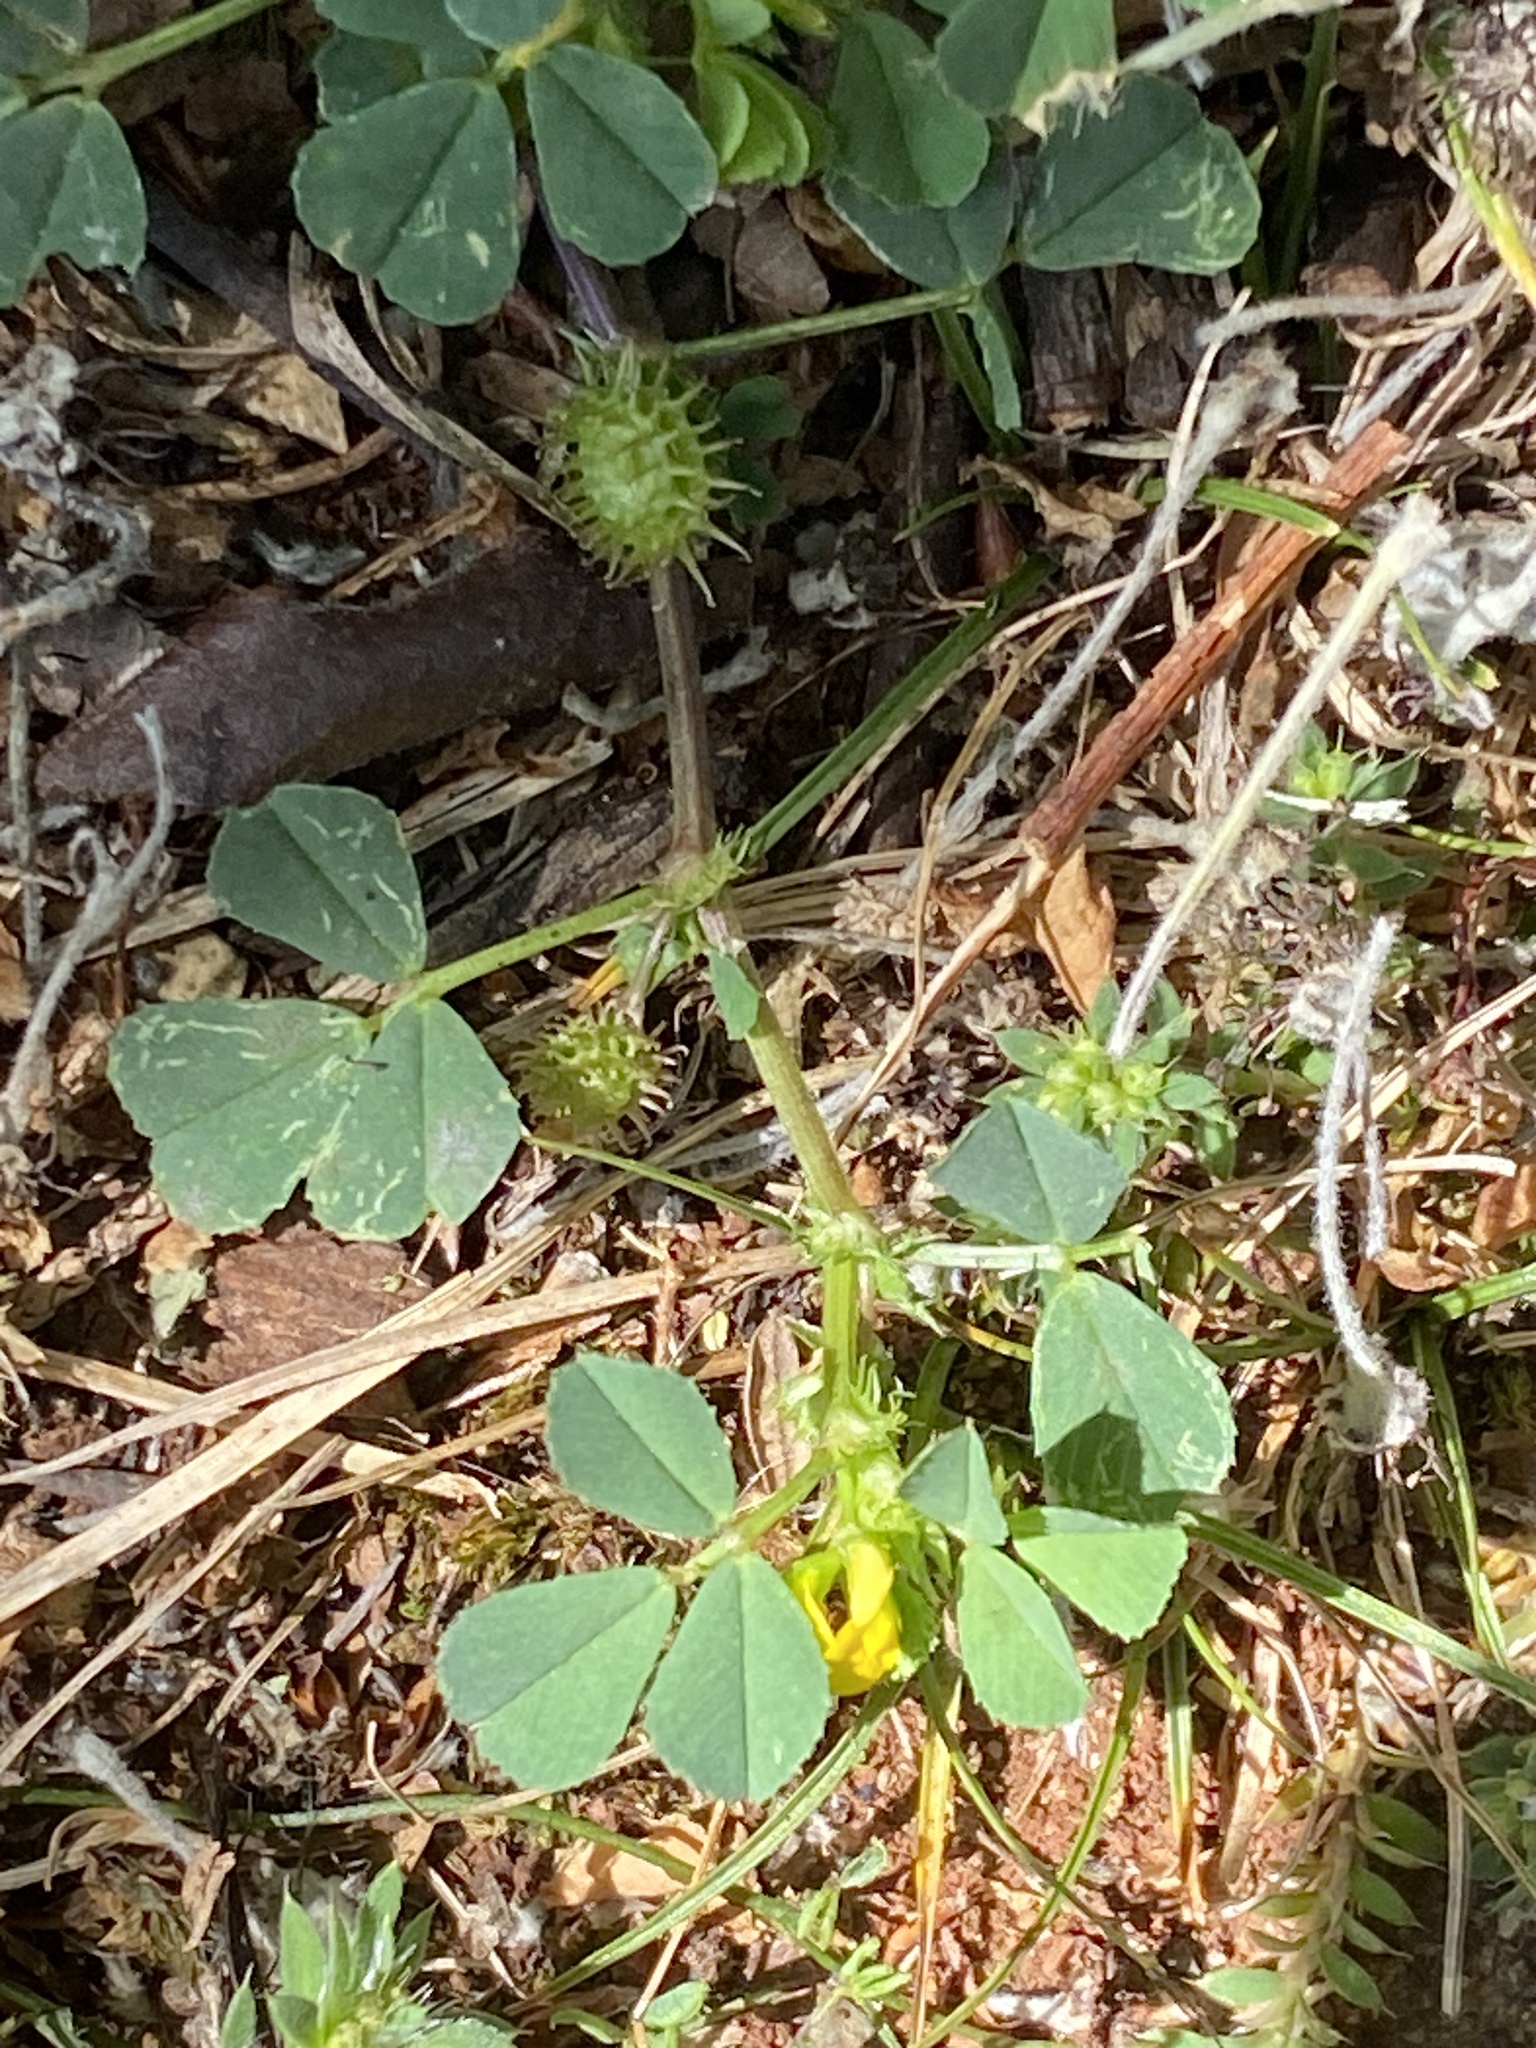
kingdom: Plantae
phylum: Tracheophyta
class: Magnoliopsida
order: Fabales
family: Fabaceae
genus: Medicago
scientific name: Medicago polymorpha
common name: Burclover
